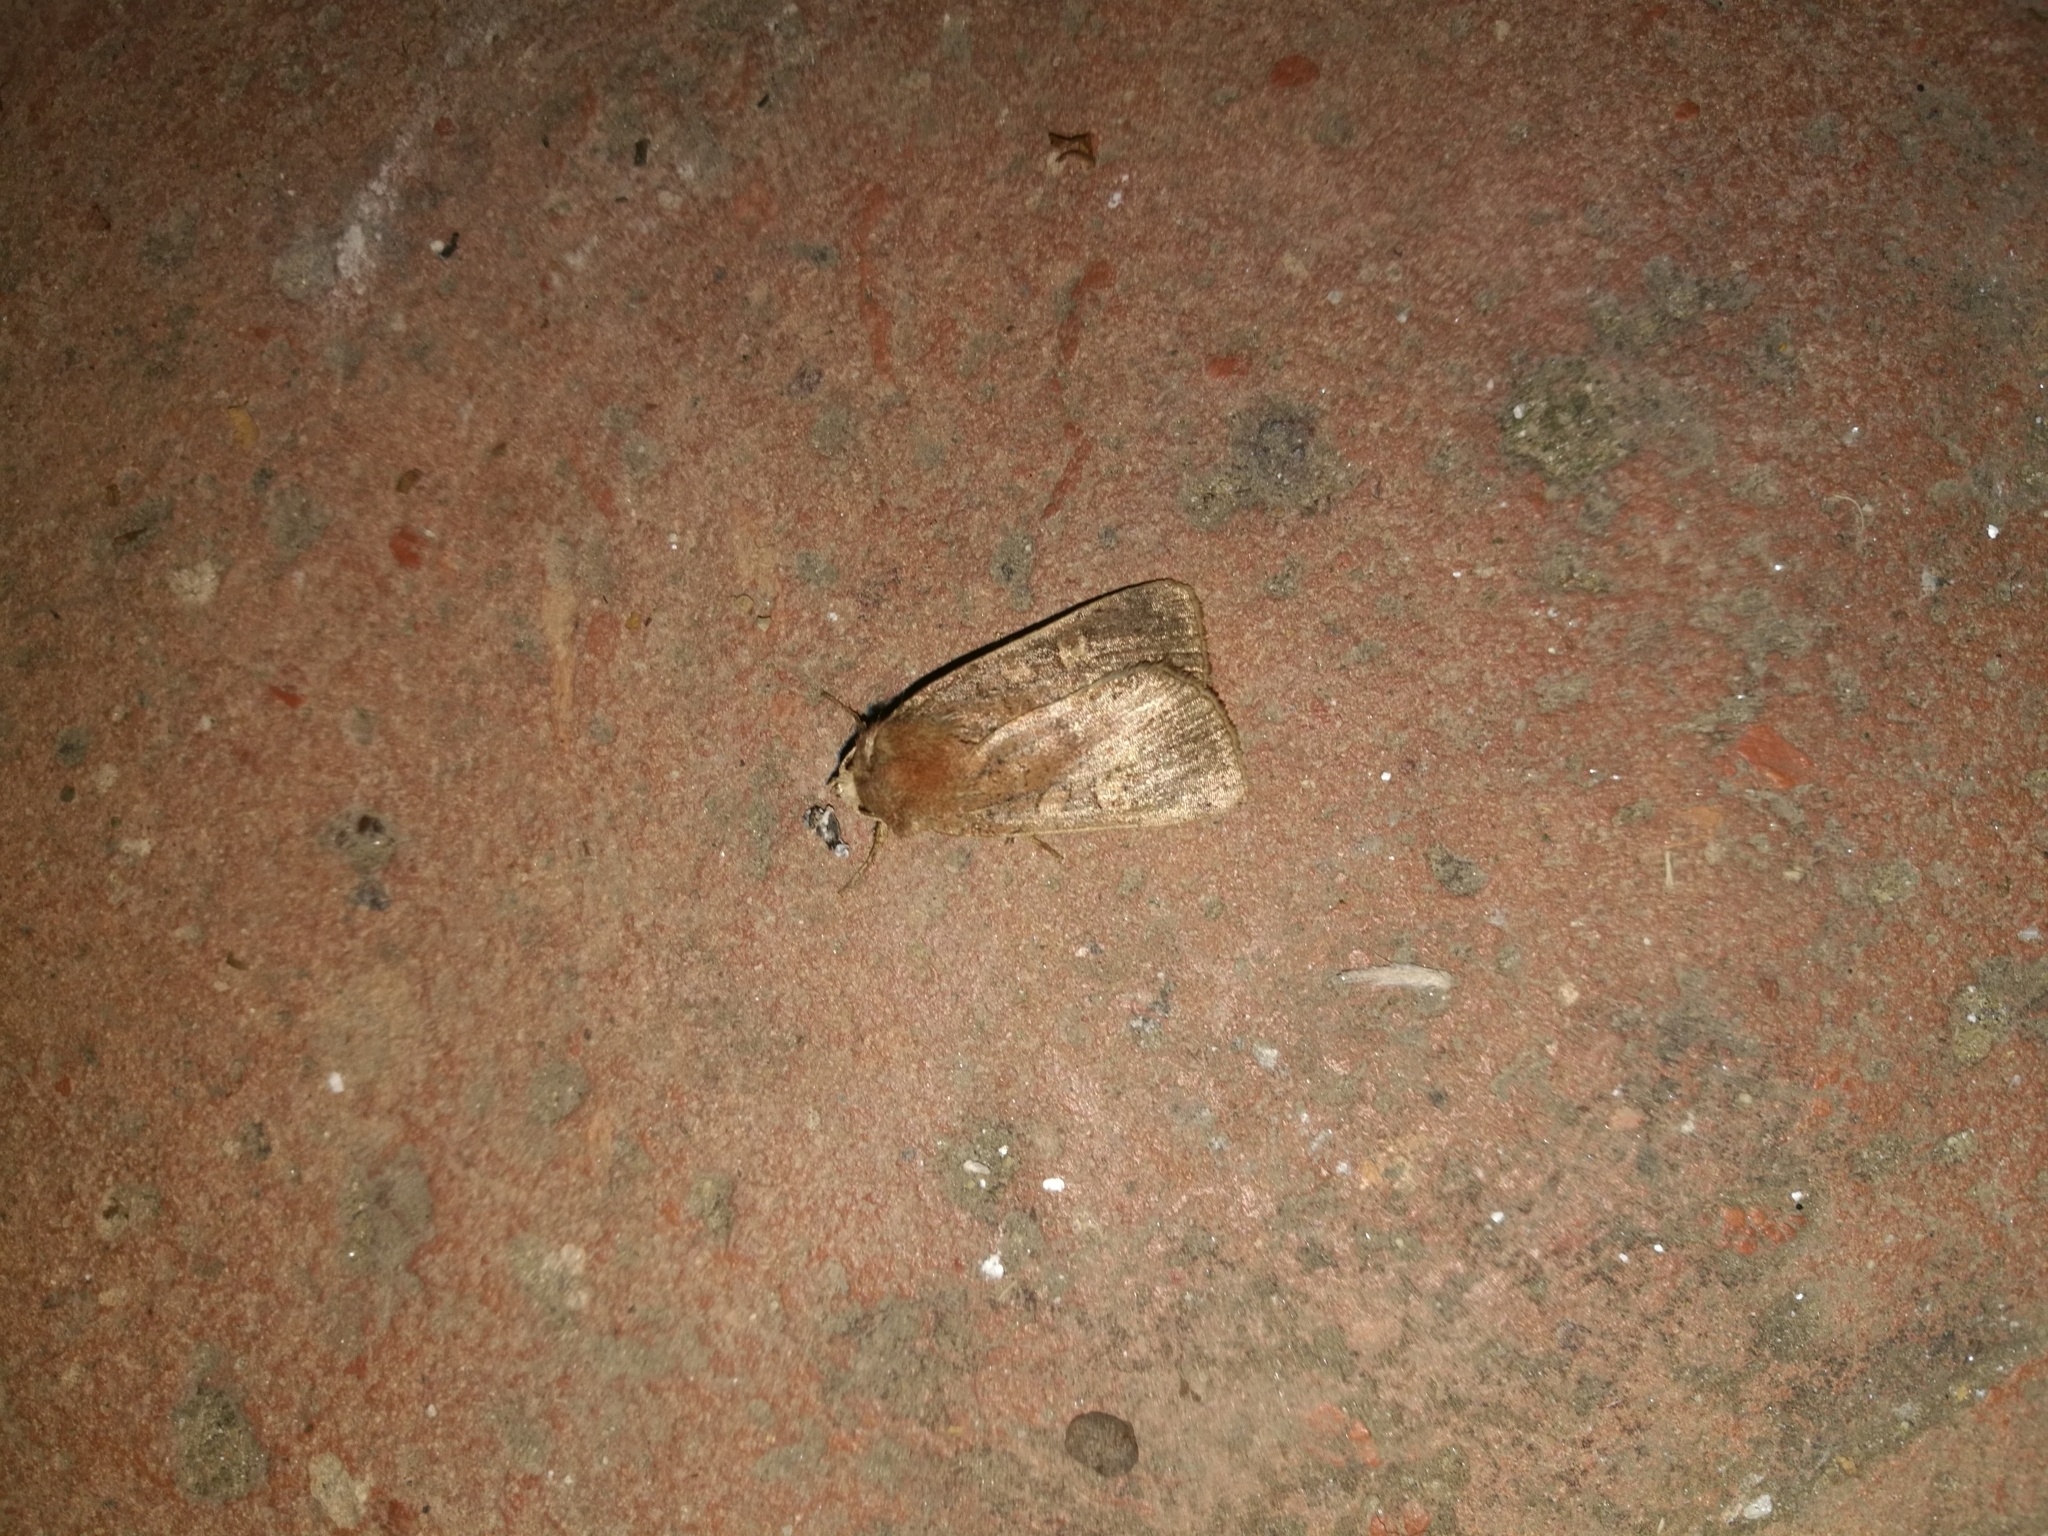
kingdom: Animalia
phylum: Arthropoda
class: Insecta
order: Lepidoptera
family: Noctuidae
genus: Xestia
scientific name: Xestia xanthographa
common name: Square-spot rustic
